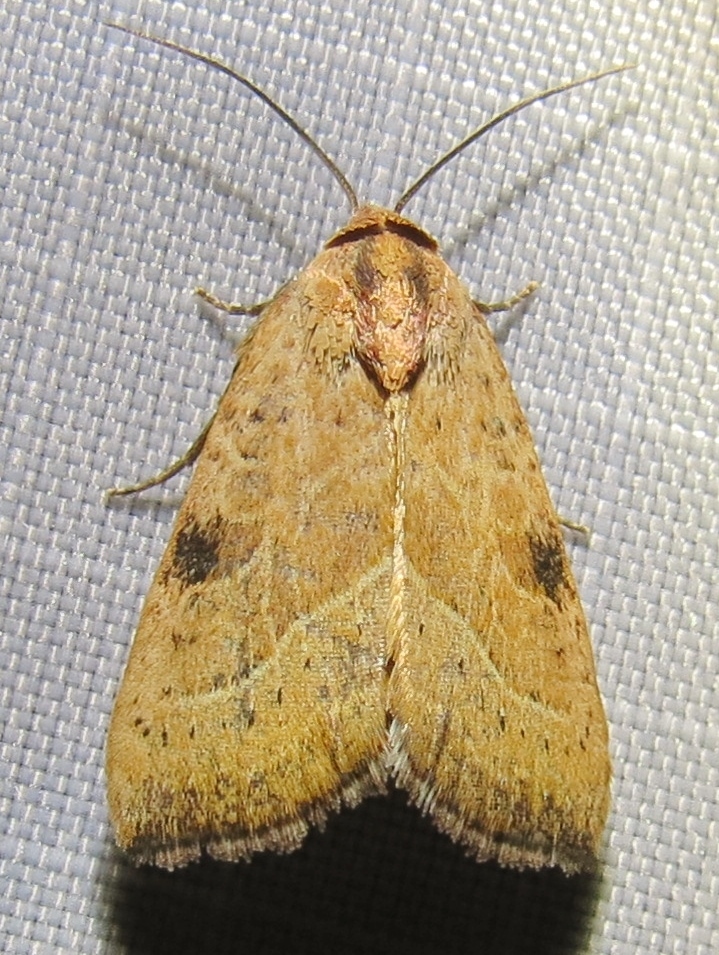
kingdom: Animalia
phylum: Arthropoda
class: Insecta
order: Lepidoptera
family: Noctuidae
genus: Galgula
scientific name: Galgula partita
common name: Wedgeling
